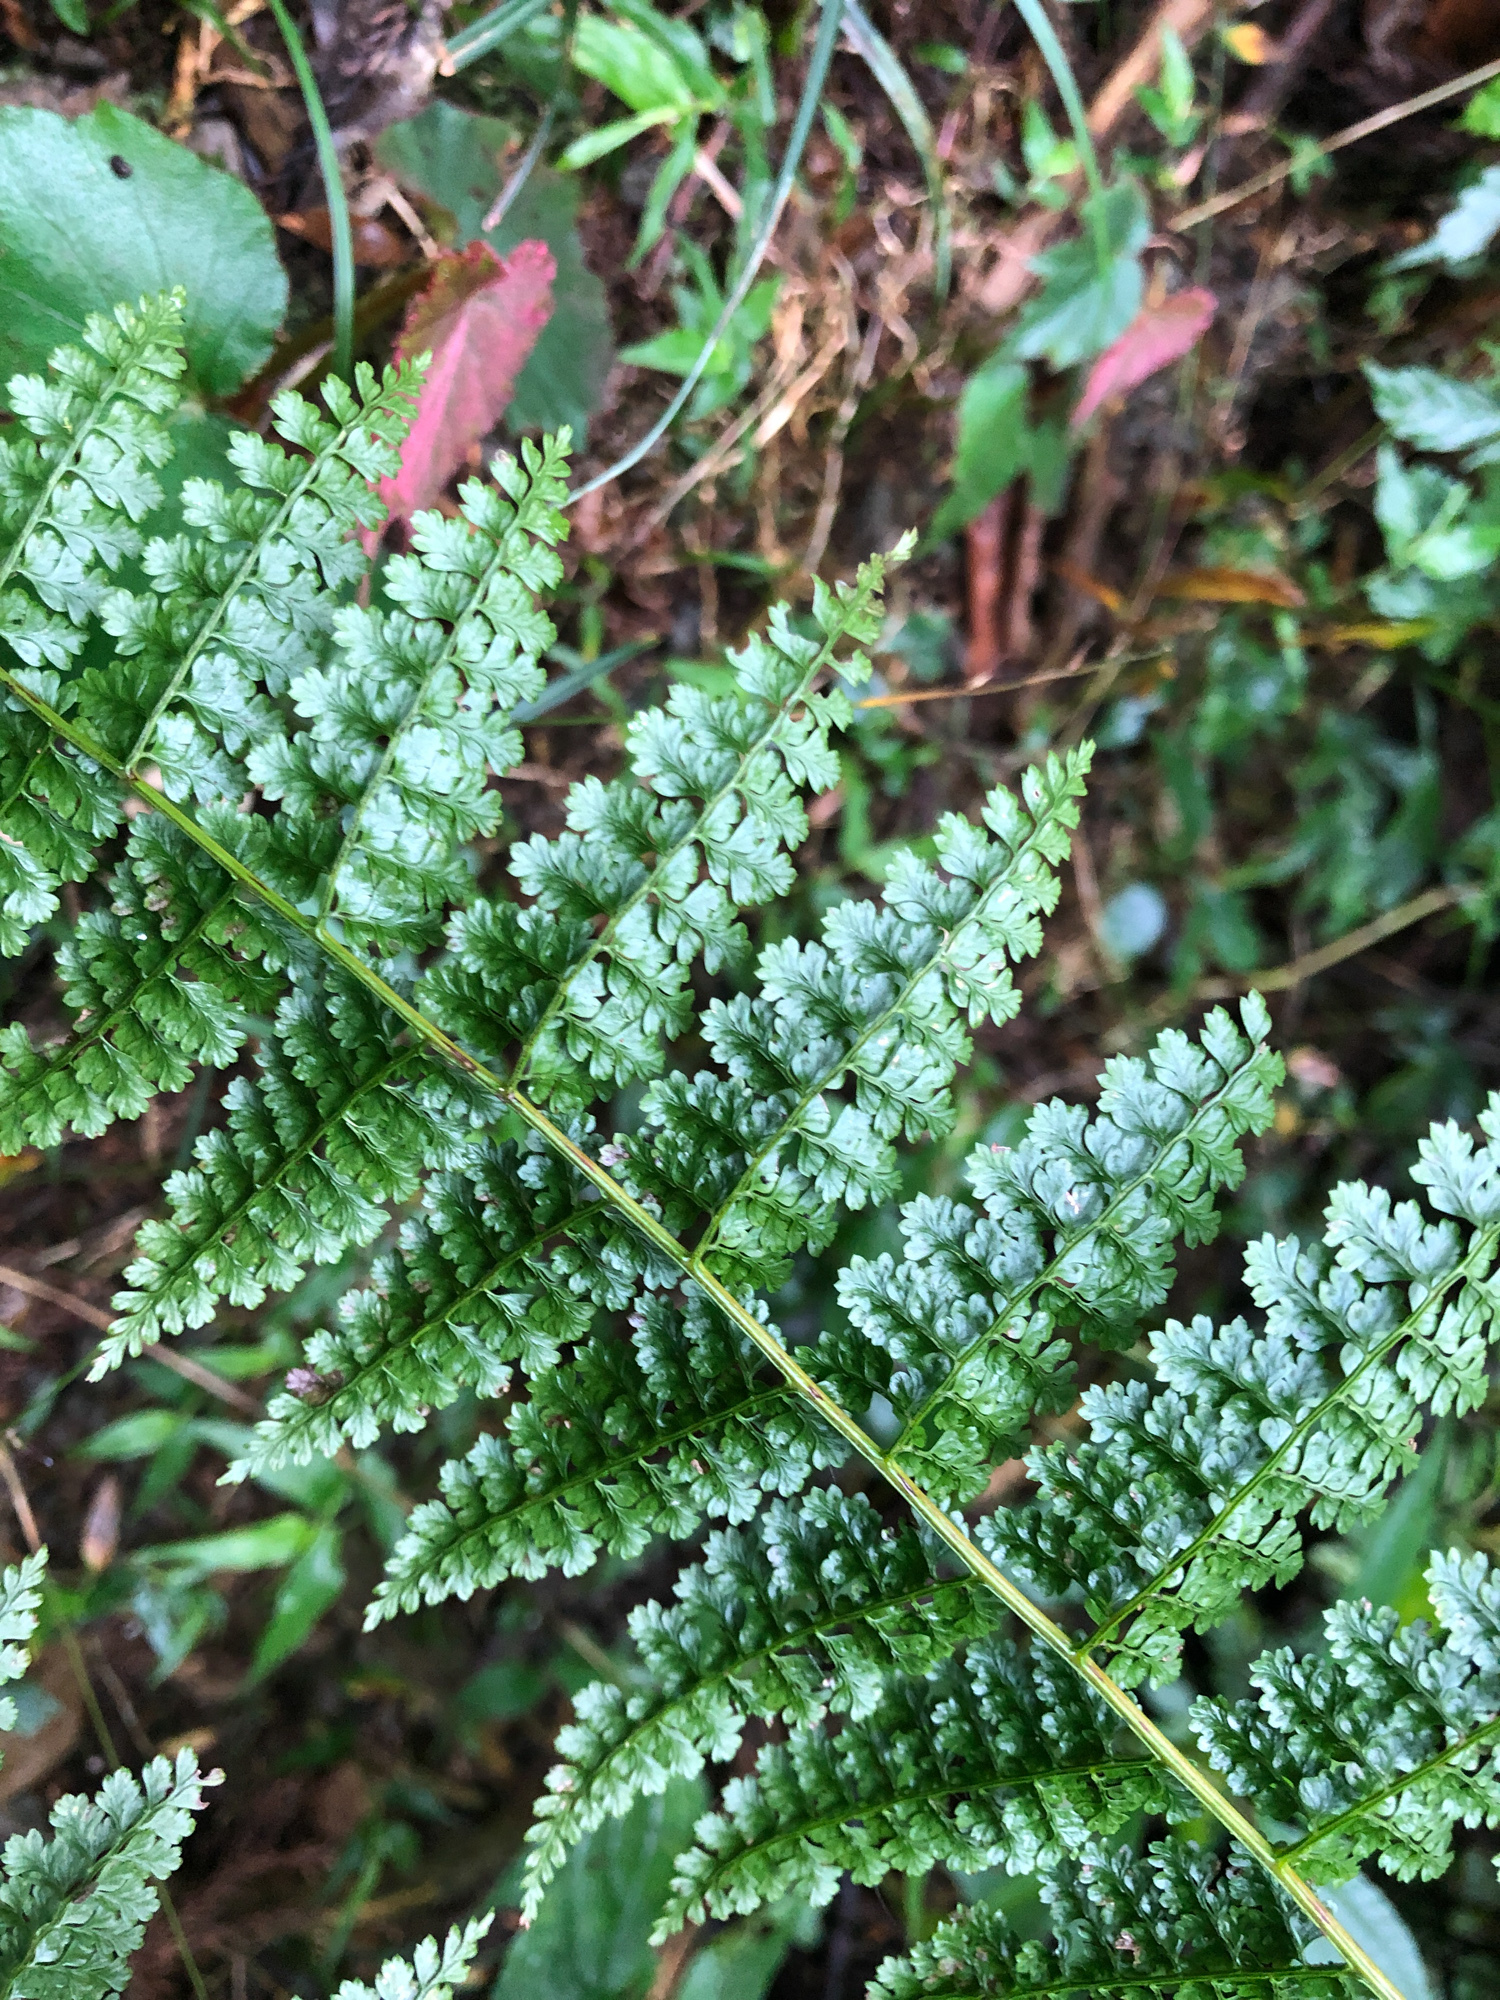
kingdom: Plantae
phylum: Tracheophyta
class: Polypodiopsida
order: Polypodiales
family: Dennstaedtiaceae
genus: Monachosorum
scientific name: Monachosorum henryi
